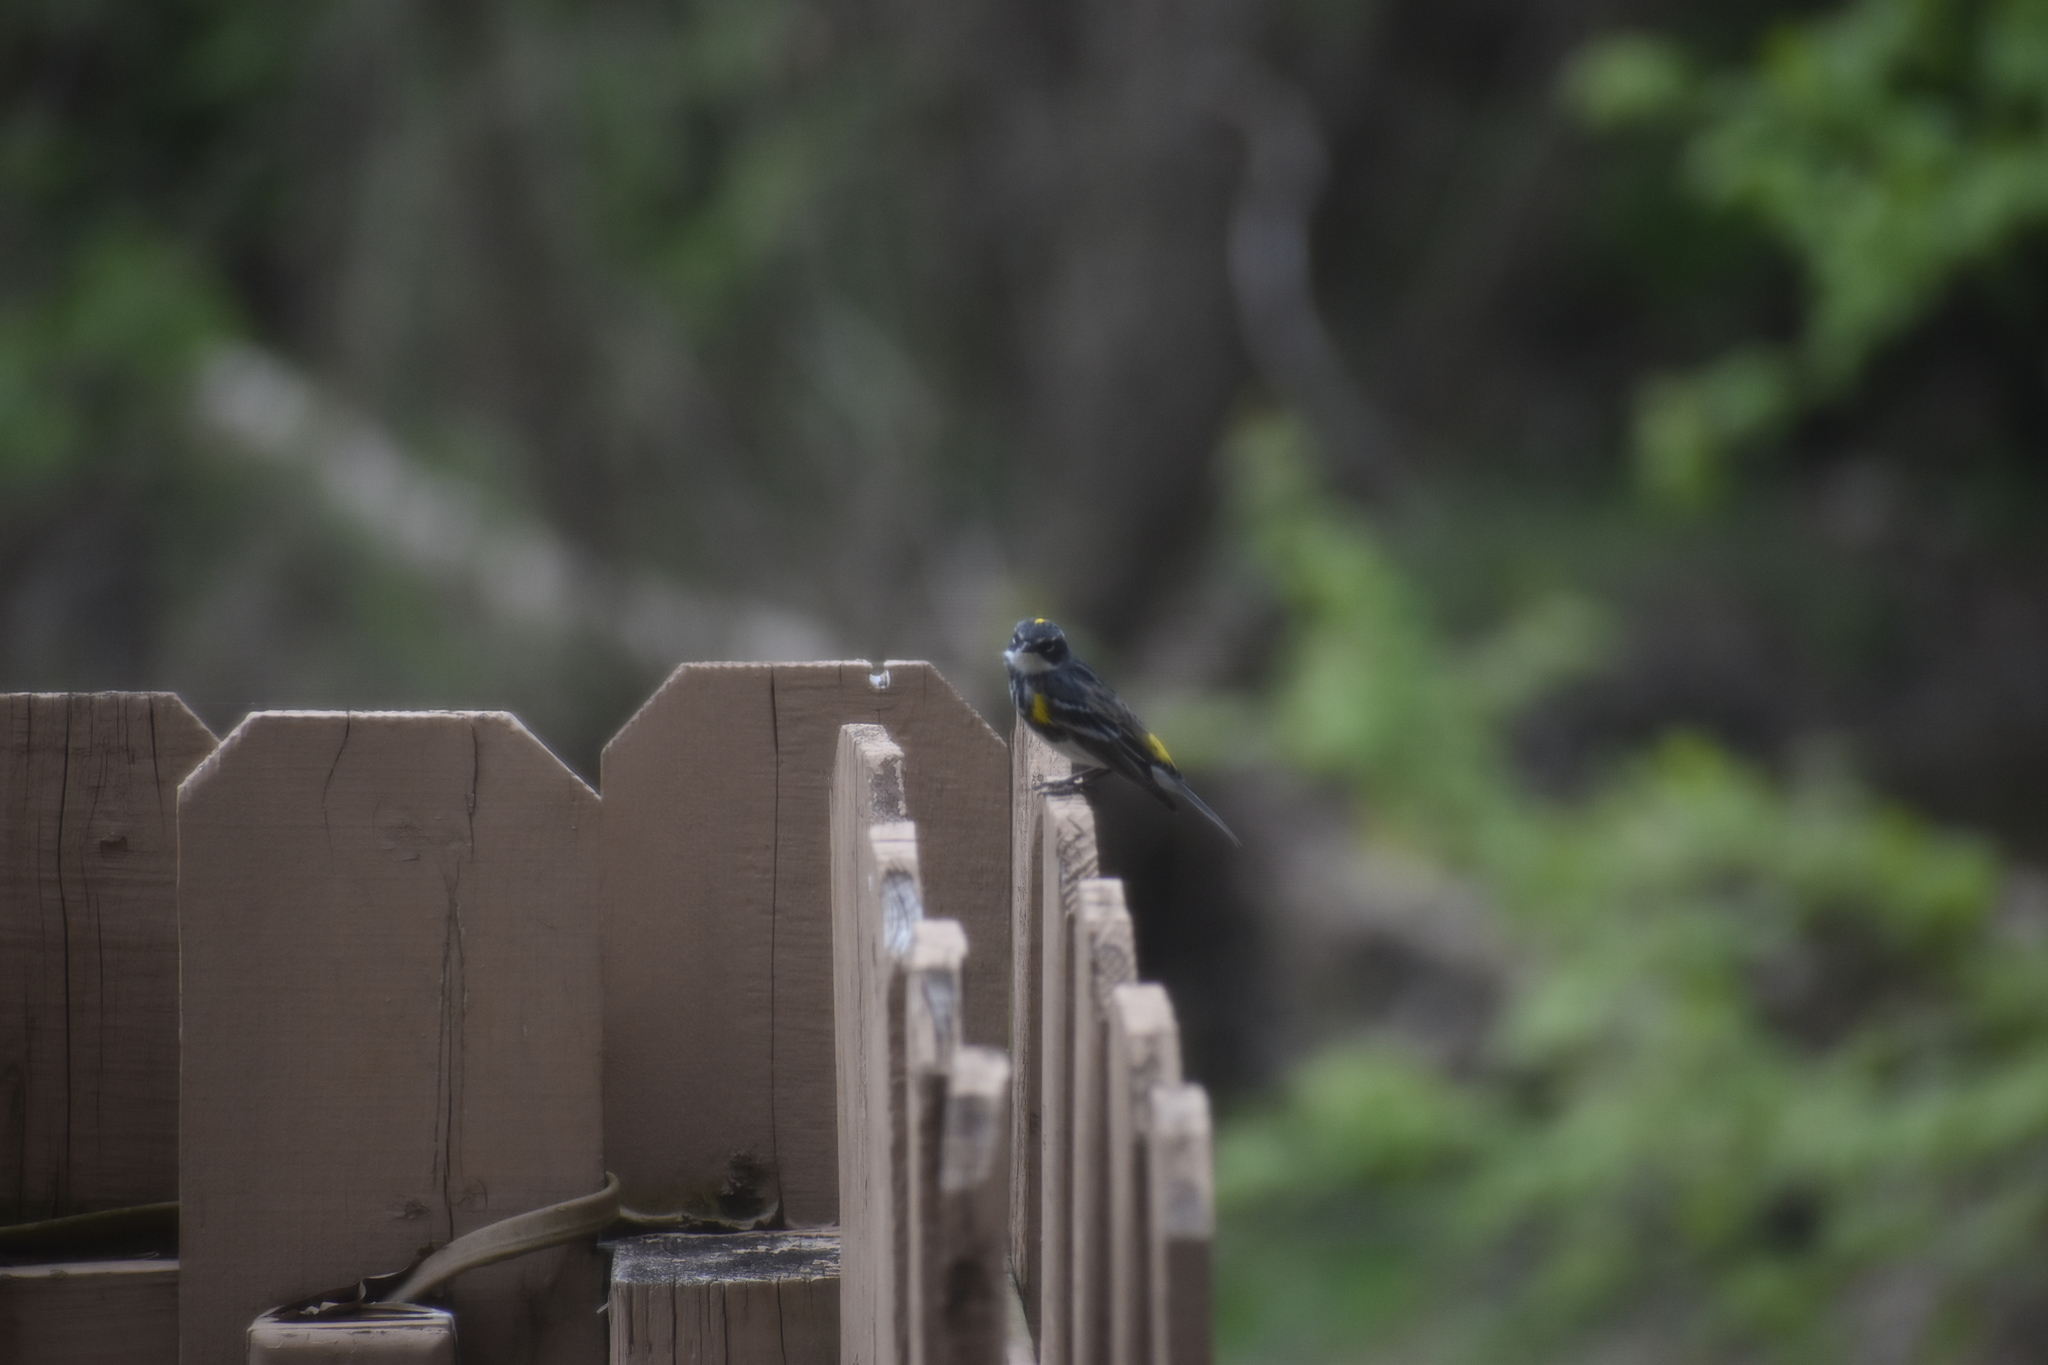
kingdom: Animalia
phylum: Chordata
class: Aves
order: Passeriformes
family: Parulidae
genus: Setophaga
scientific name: Setophaga coronata
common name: Myrtle warbler
